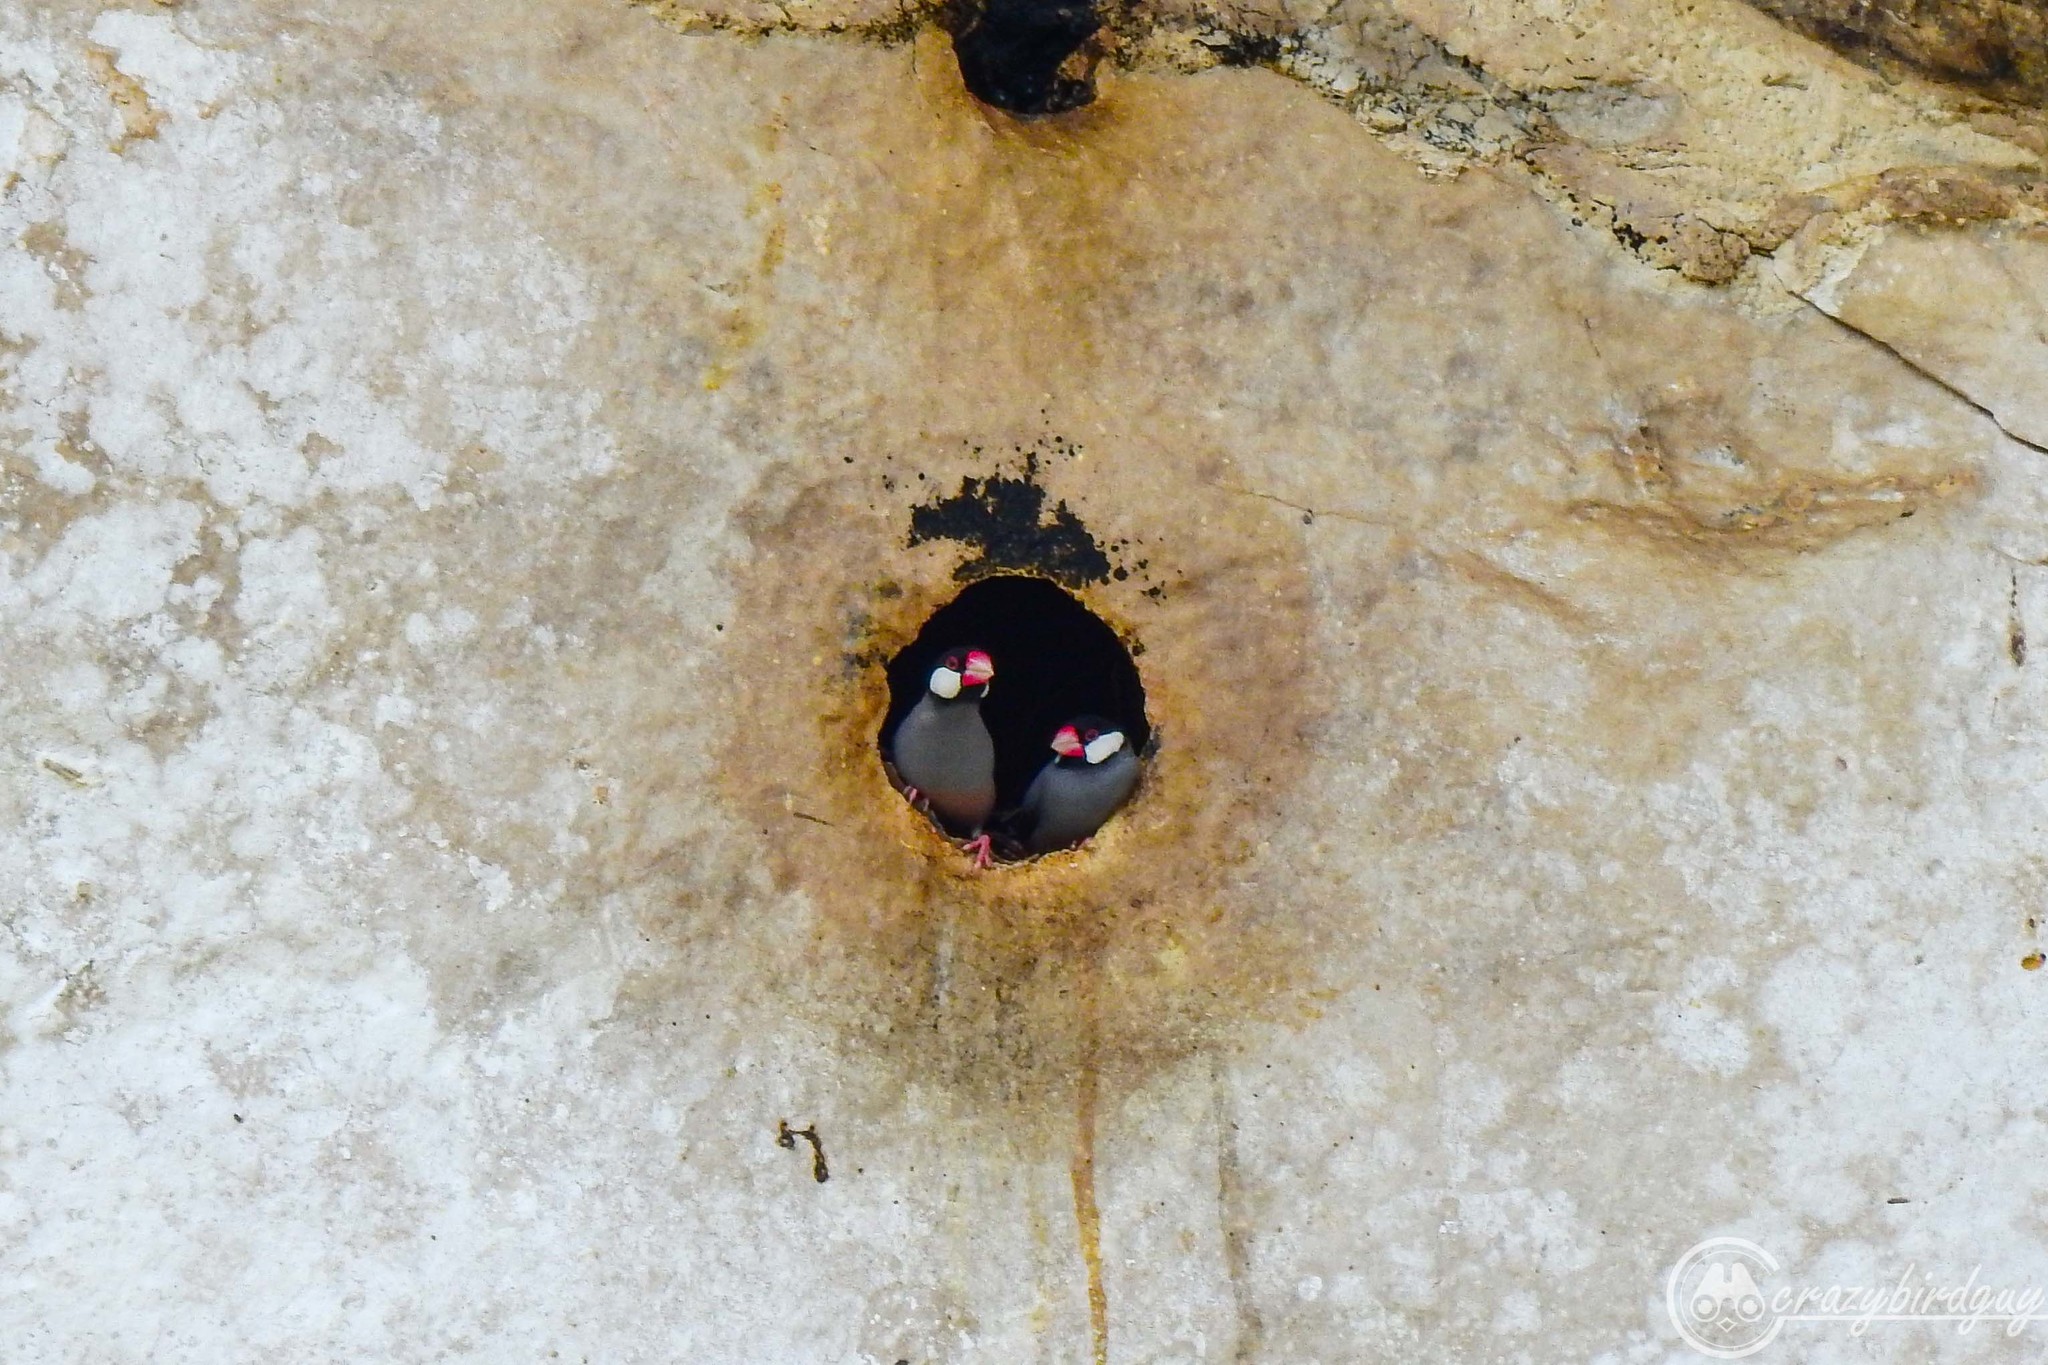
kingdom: Animalia
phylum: Chordata
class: Aves
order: Passeriformes
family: Estrildidae
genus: Lonchura
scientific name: Lonchura oryzivora
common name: Java sparrow
